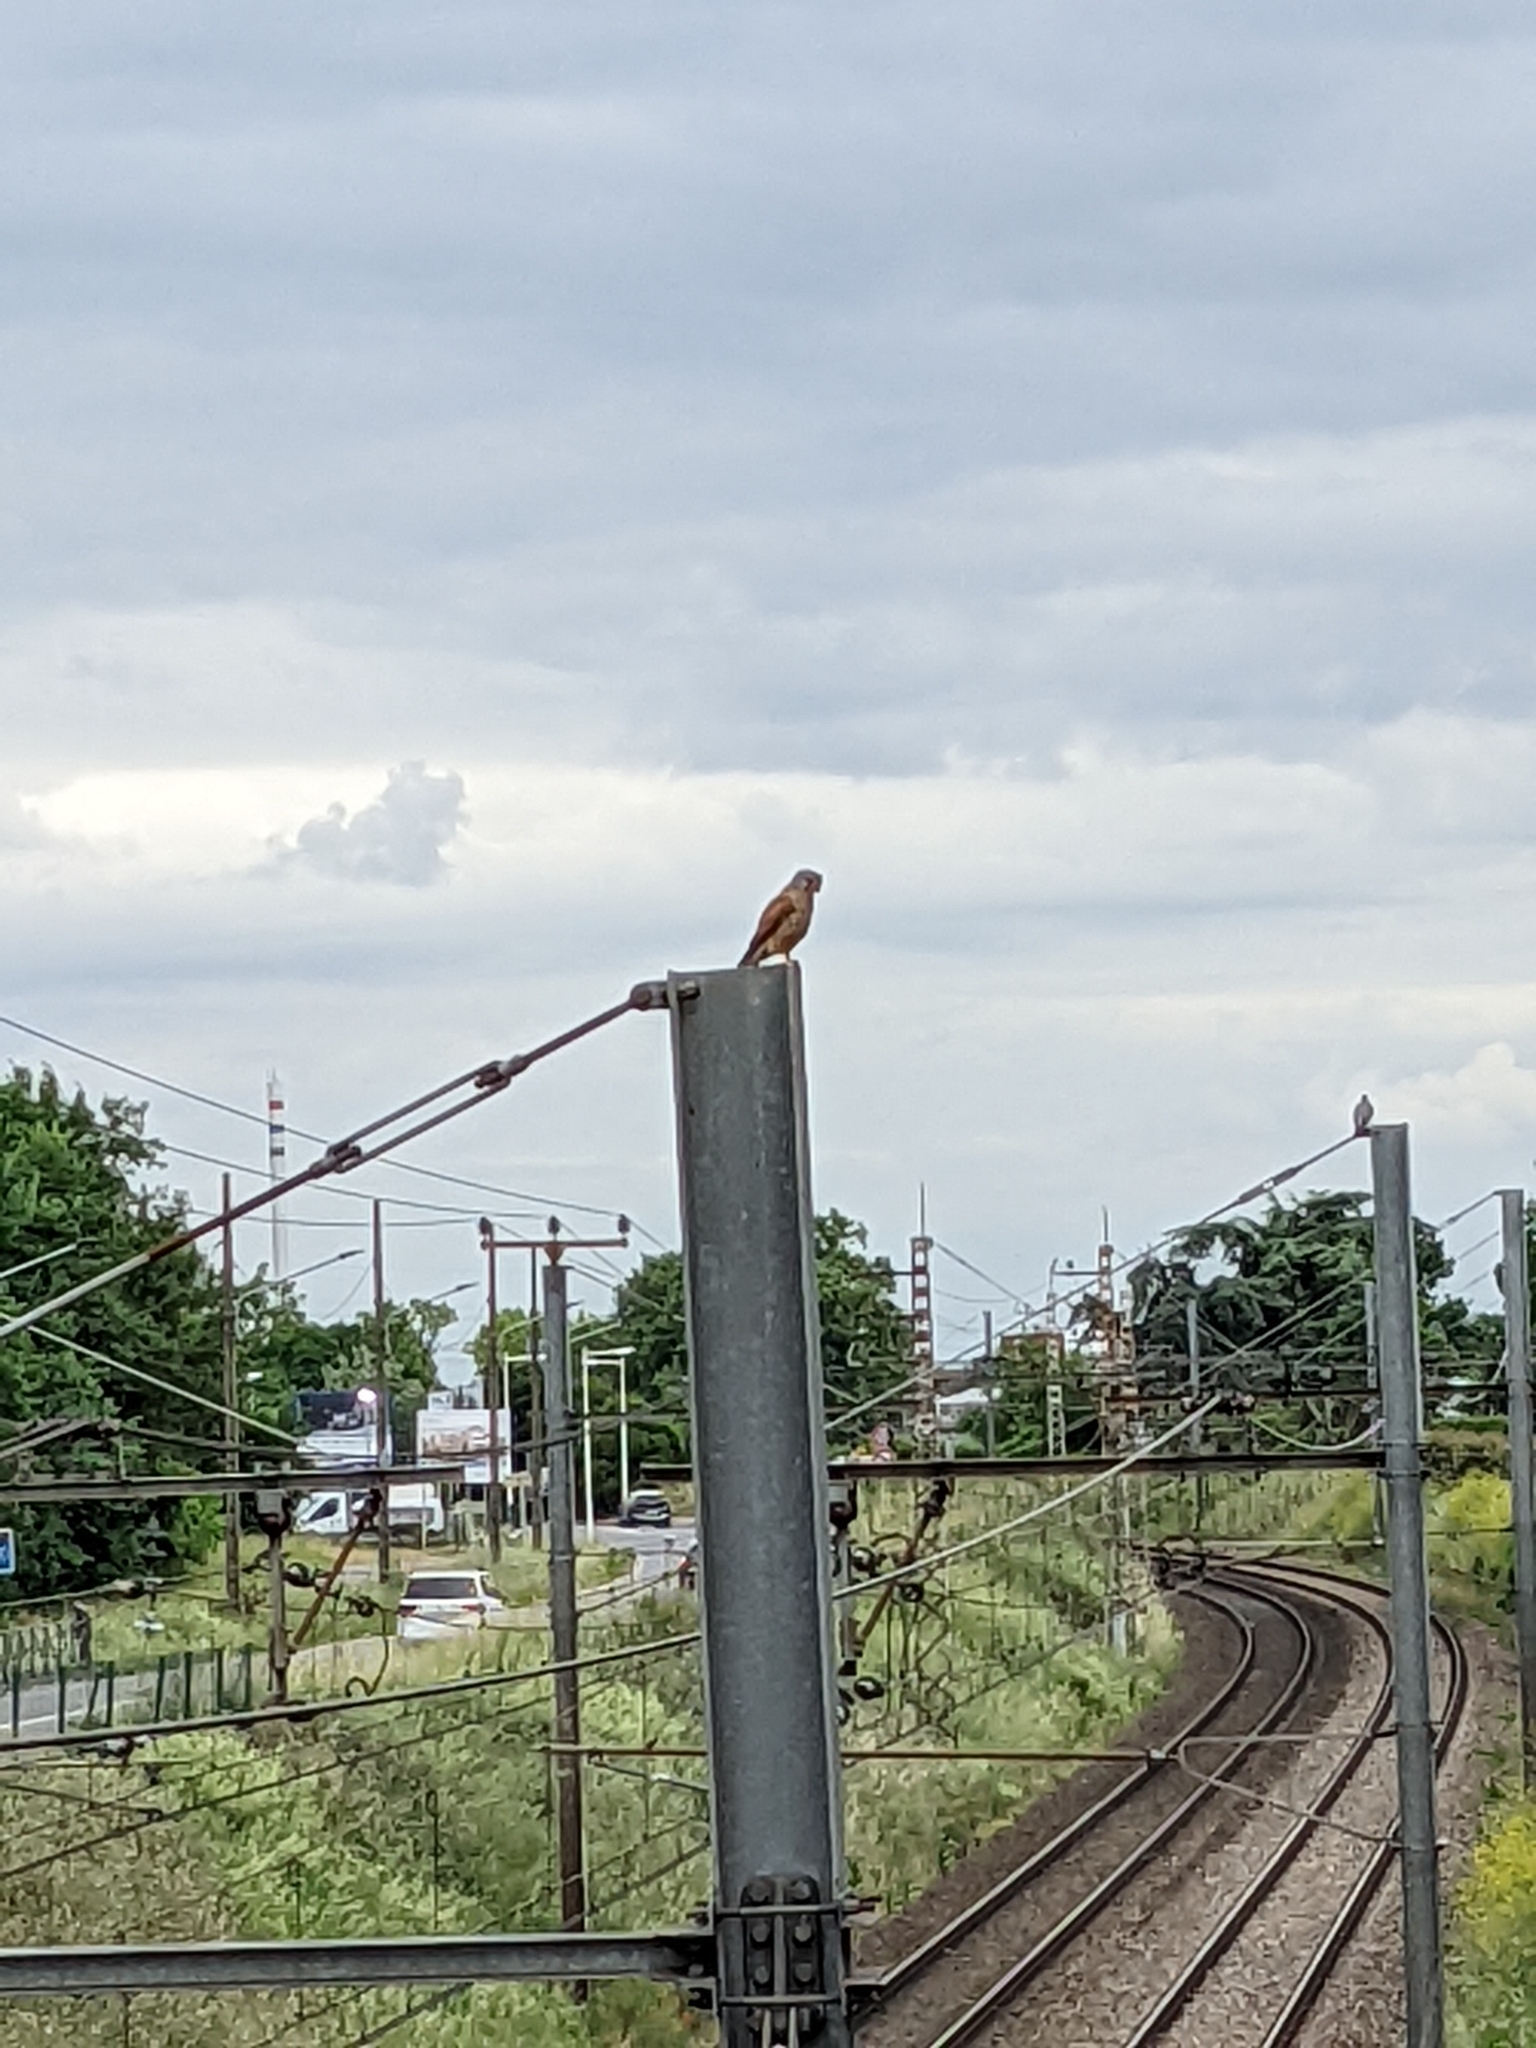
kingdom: Animalia
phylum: Chordata
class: Aves
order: Falconiformes
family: Falconidae
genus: Falco
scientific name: Falco tinnunculus
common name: Common kestrel
